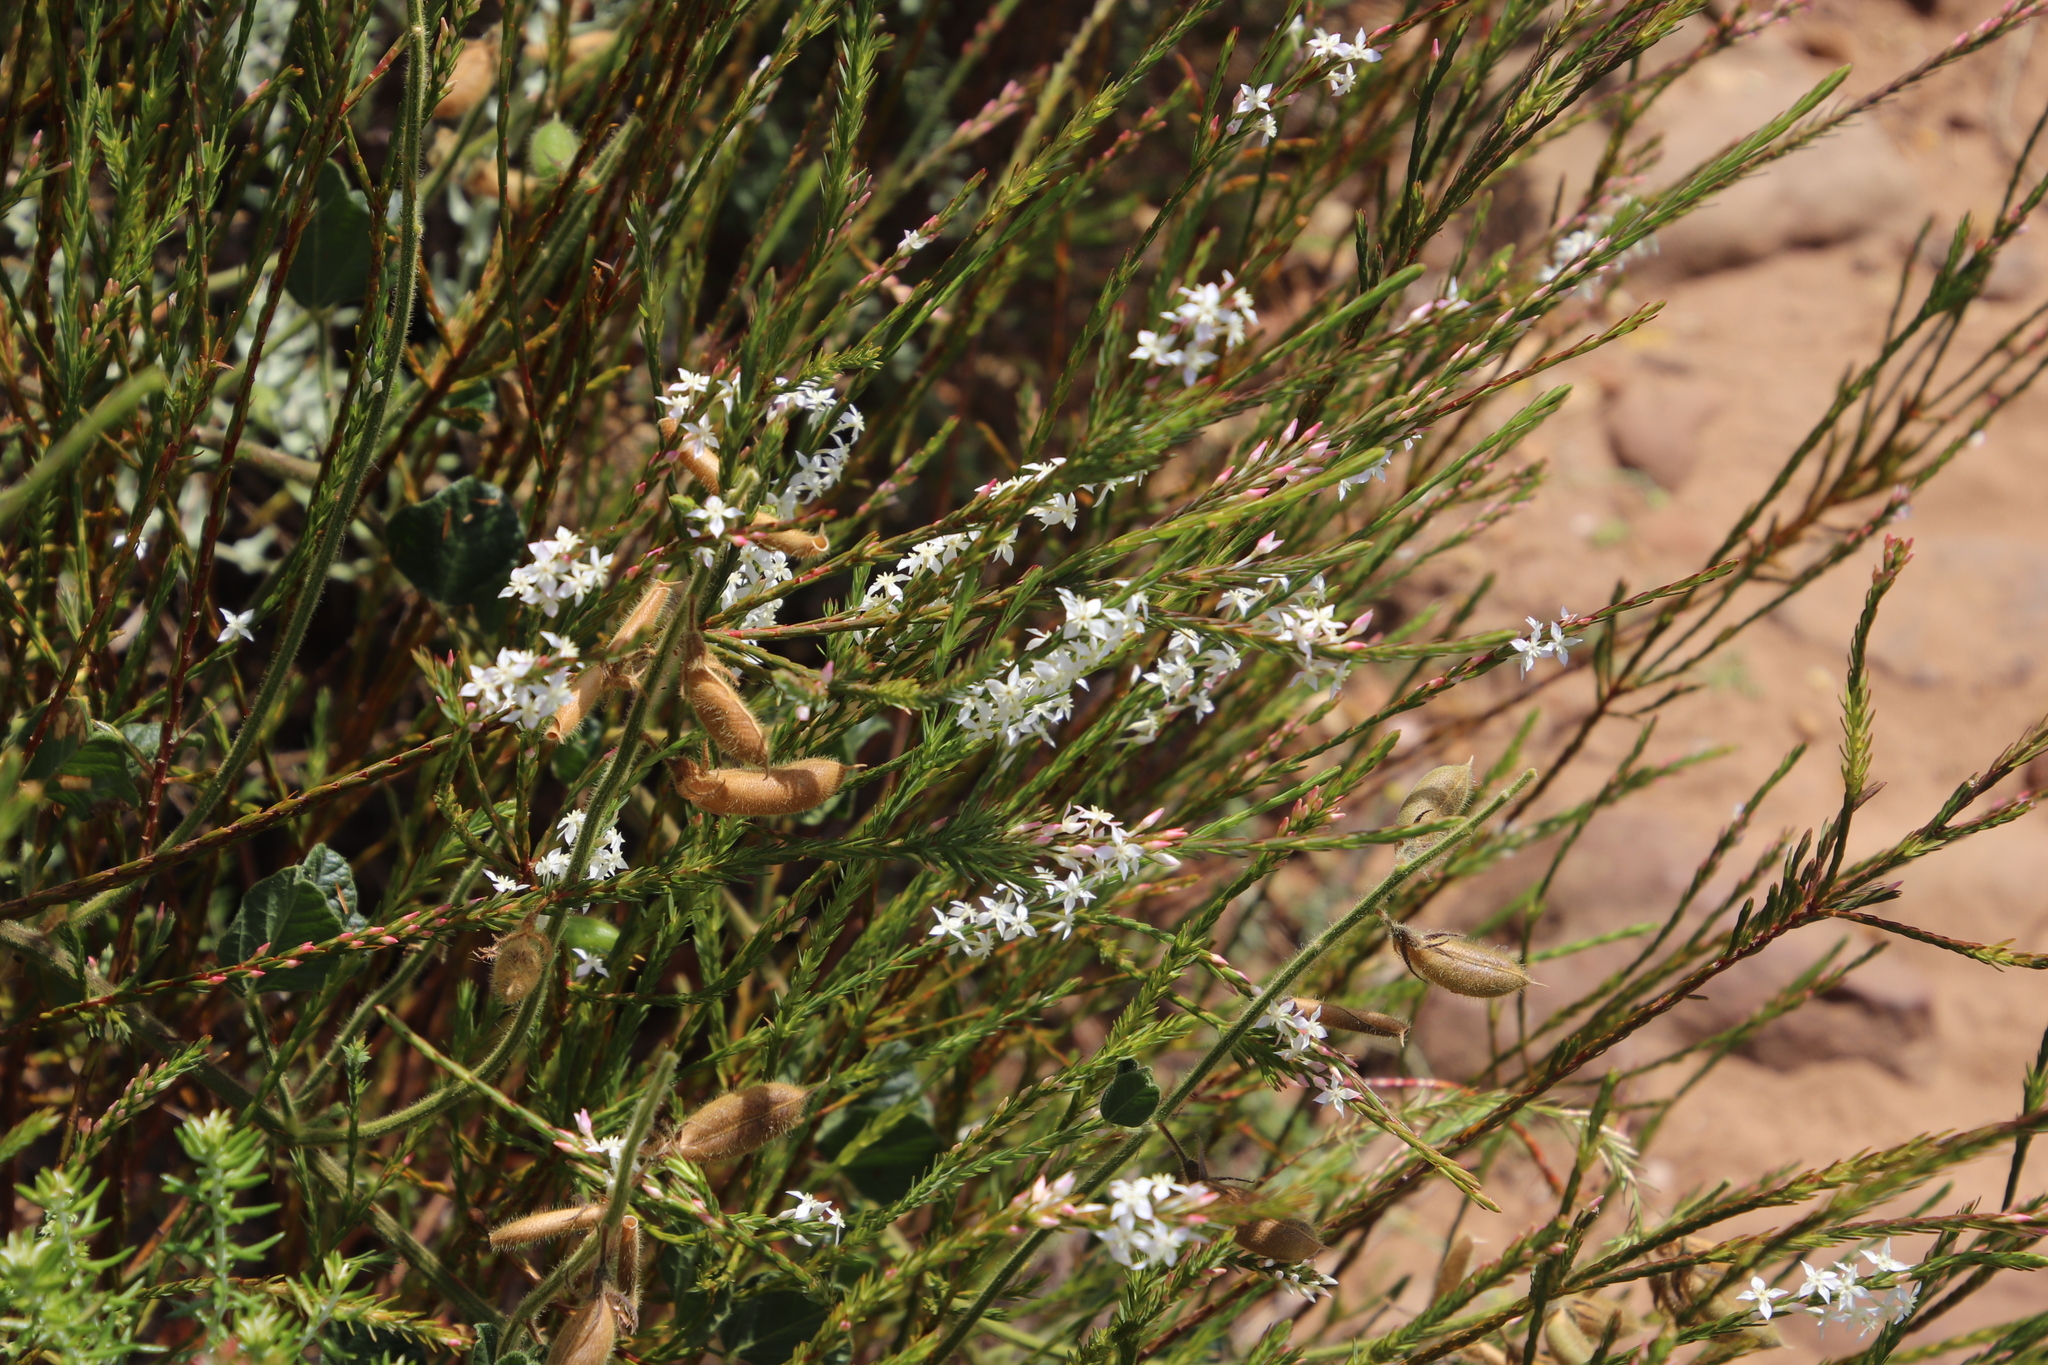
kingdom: Plantae
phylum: Tracheophyta
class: Magnoliopsida
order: Malvales
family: Thymelaeaceae
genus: Struthiola
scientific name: Struthiola dodecandra
